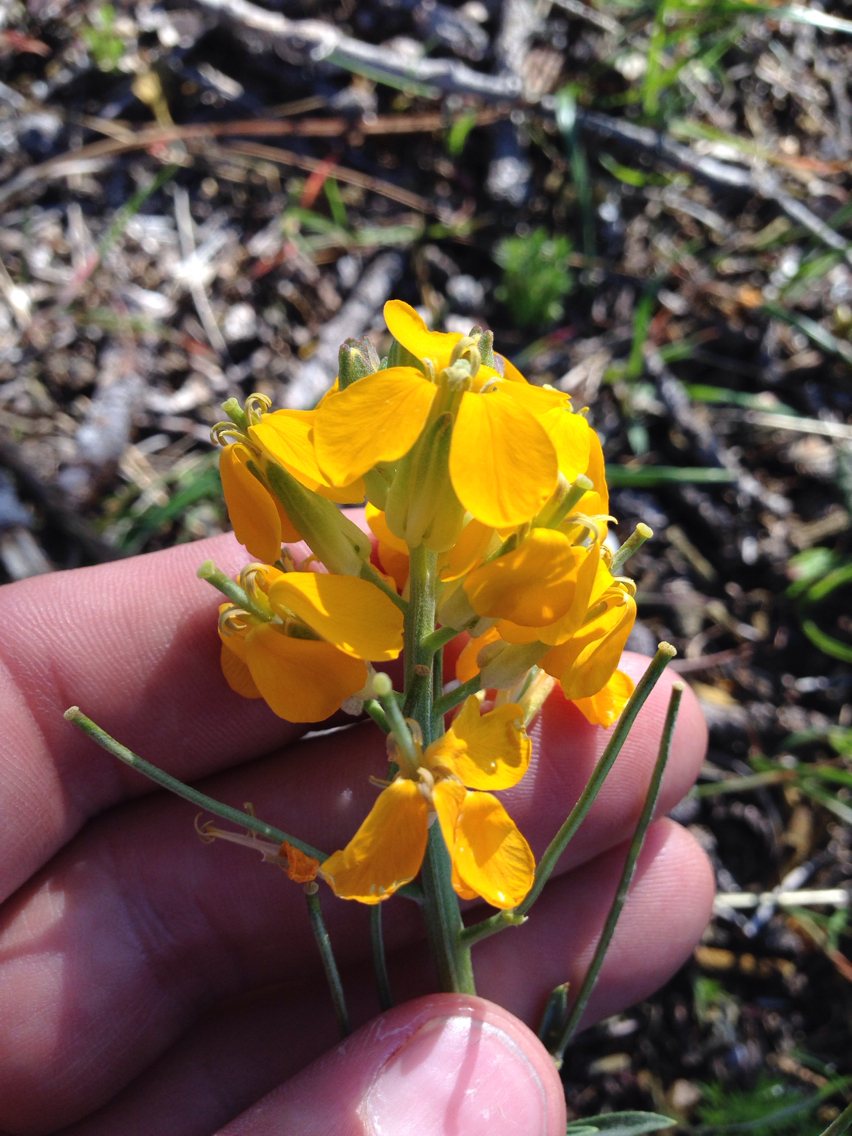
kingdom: Plantae
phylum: Tracheophyta
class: Magnoliopsida
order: Brassicales
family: Brassicaceae
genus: Erysimum
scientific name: Erysimum capitatum
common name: Western wallflower
